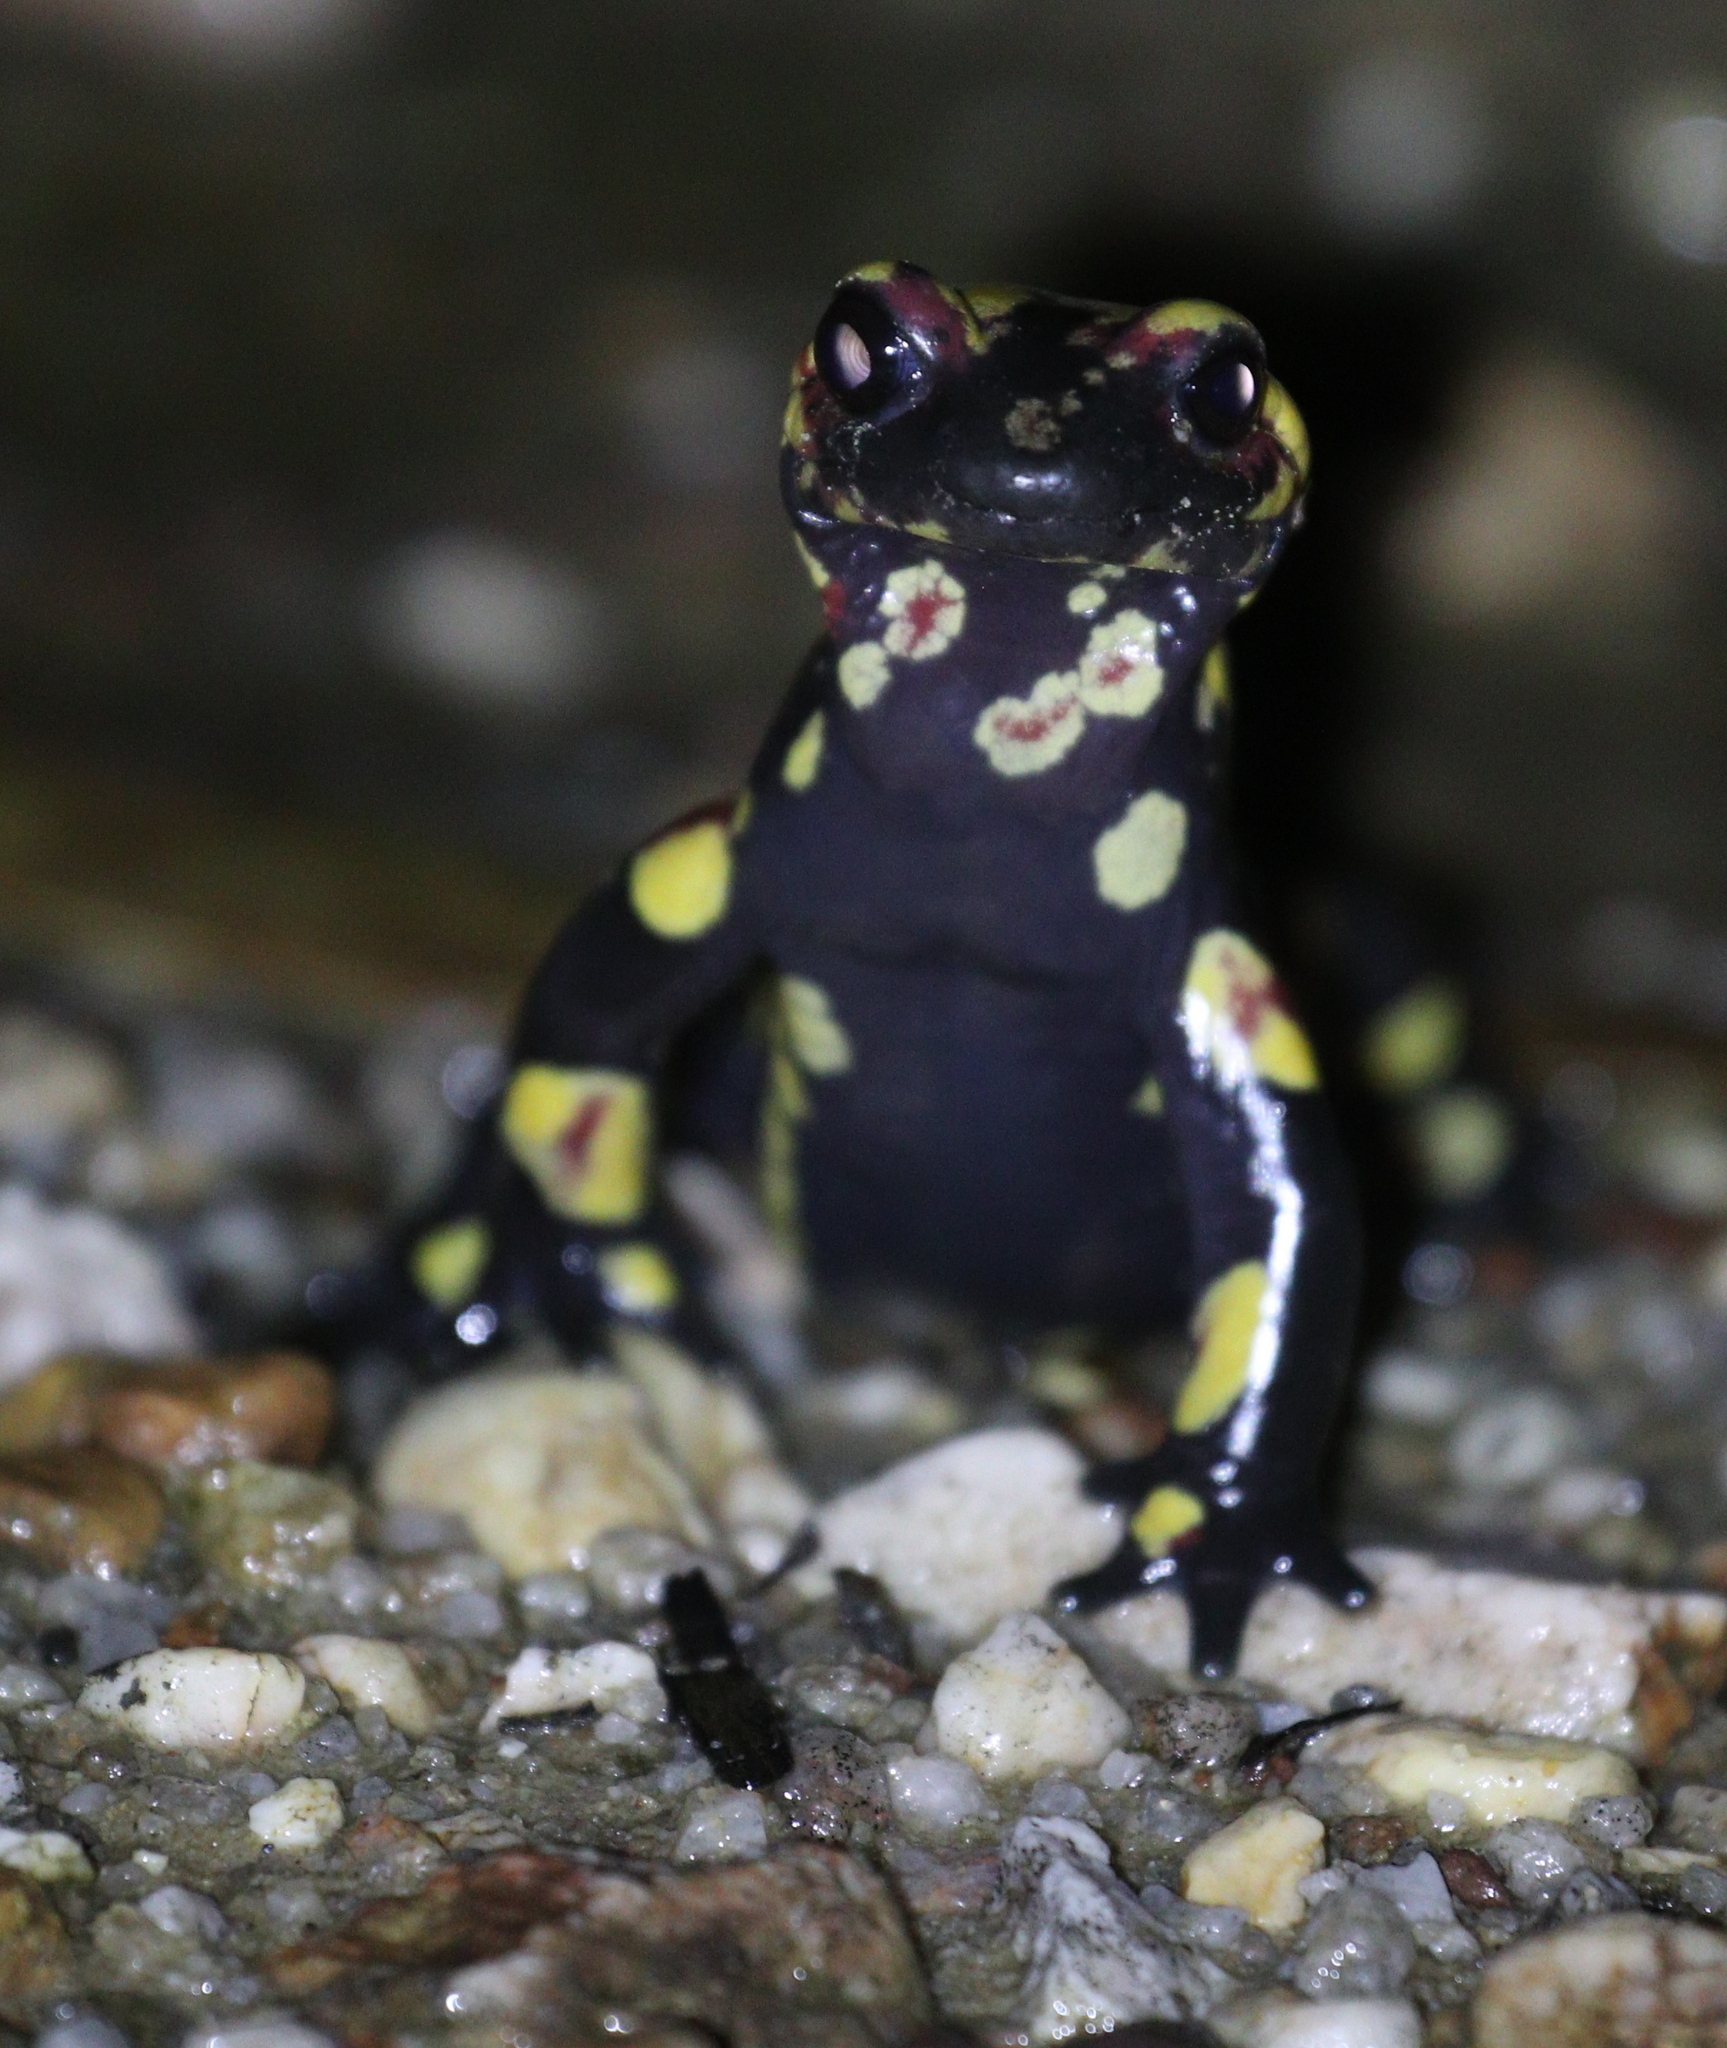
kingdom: Animalia
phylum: Chordata
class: Amphibia
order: Caudata
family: Salamandridae
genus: Salamandra
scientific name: Salamandra salamandra
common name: Fire salamander
